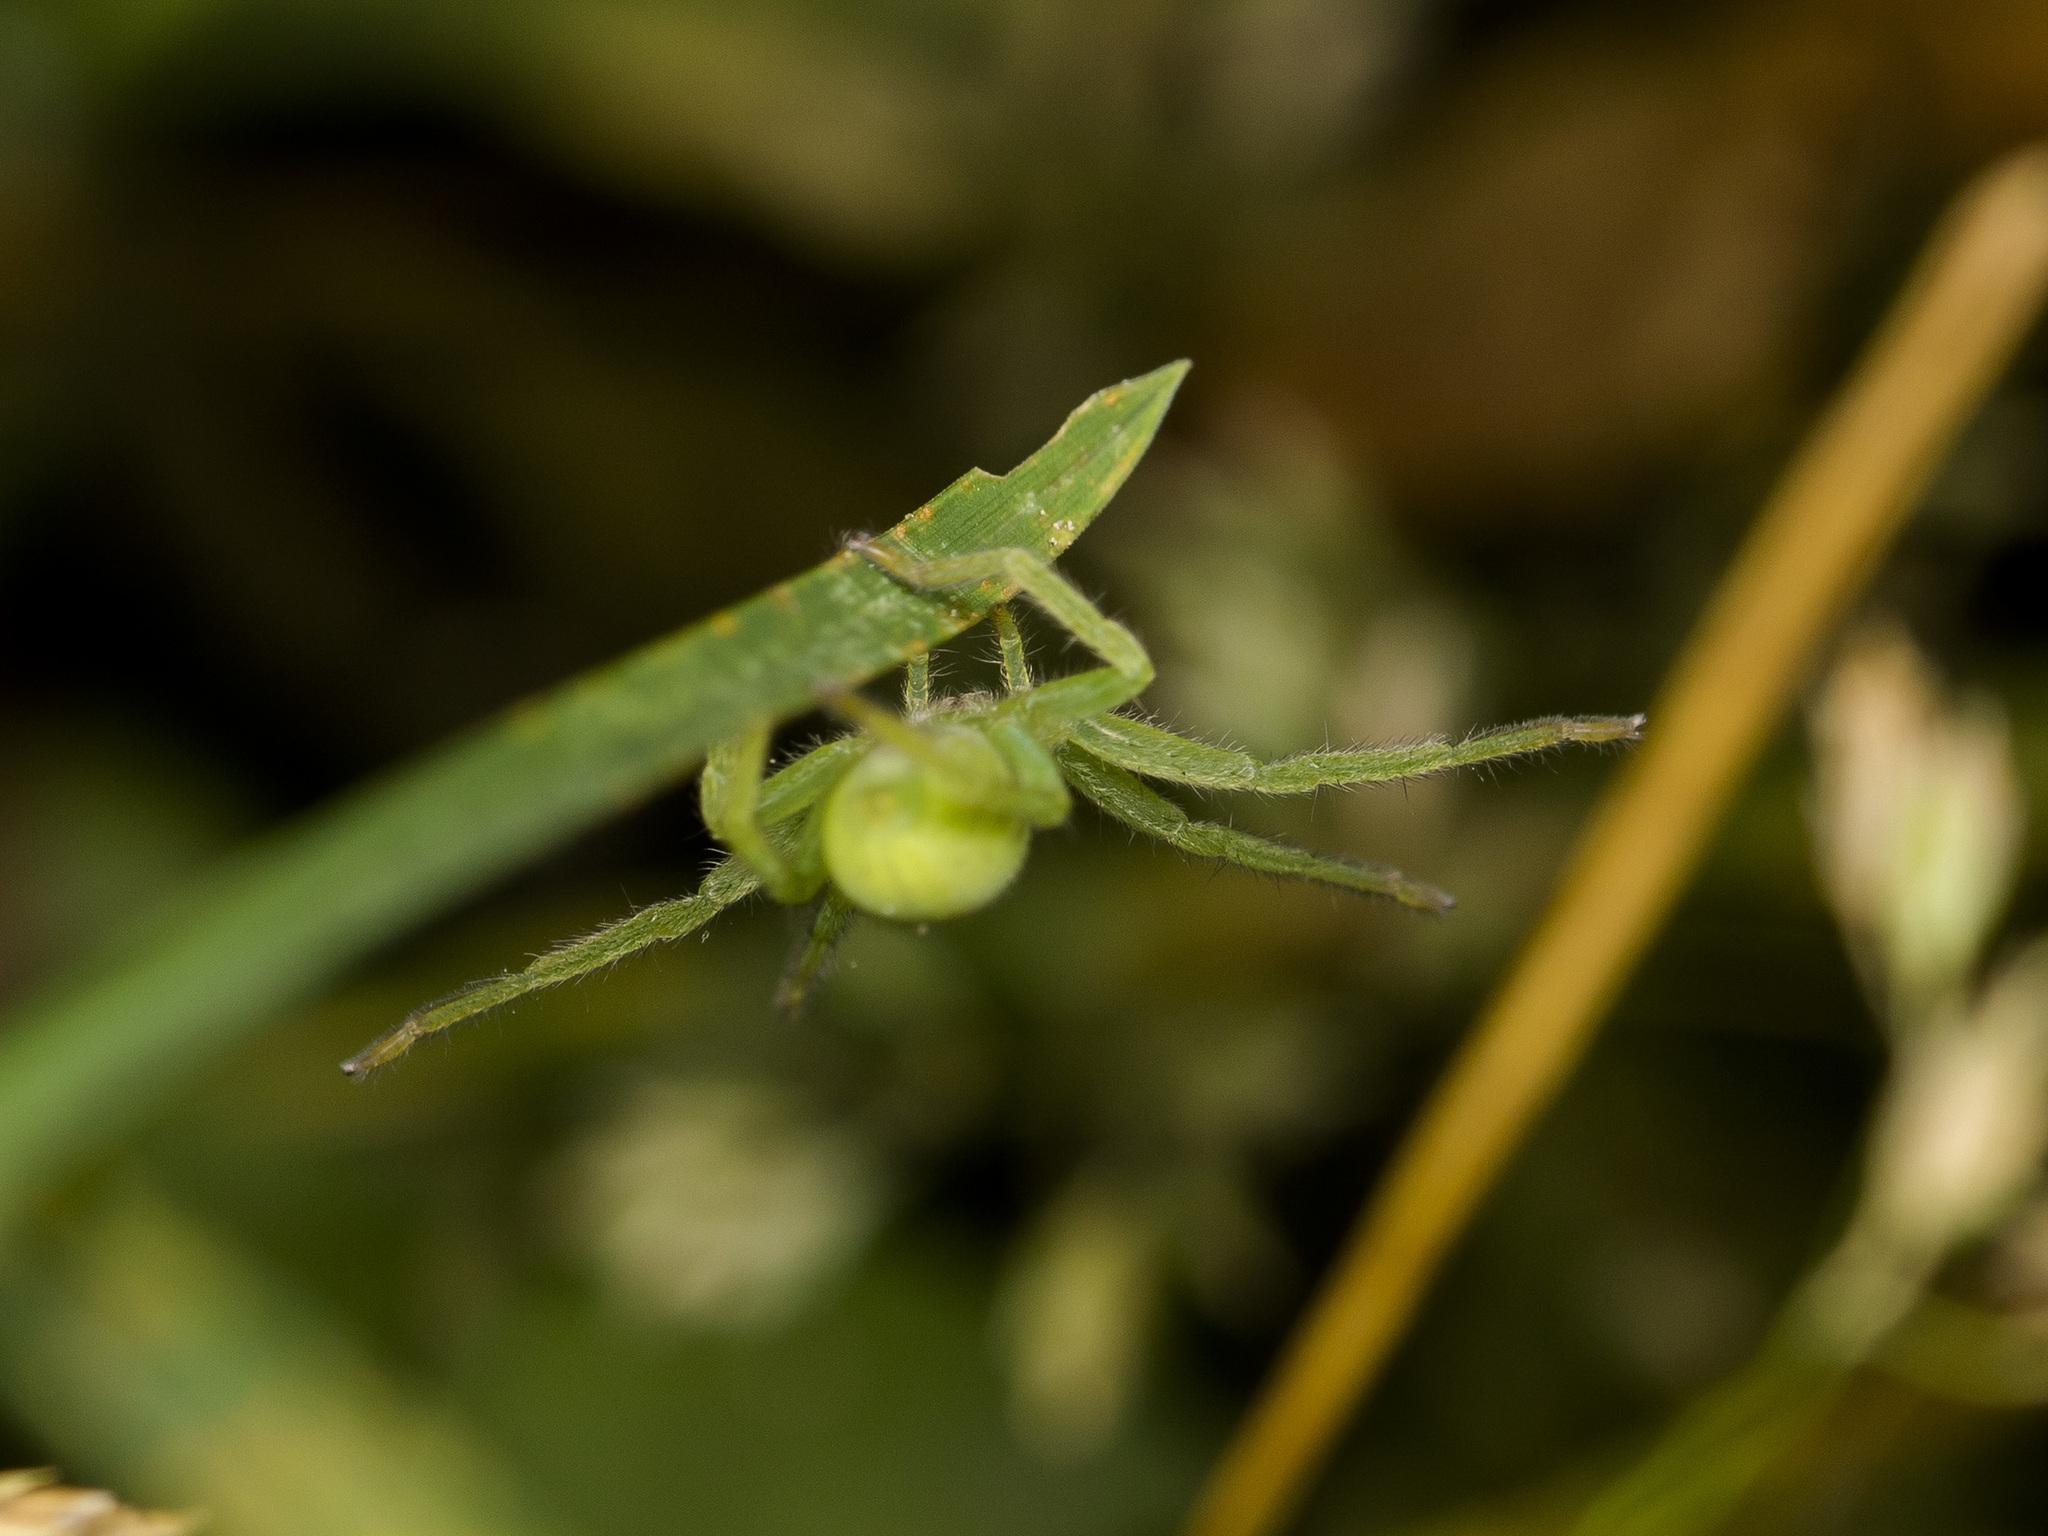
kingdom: Animalia
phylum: Arthropoda
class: Arachnida
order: Araneae
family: Sparassidae
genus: Micrommata
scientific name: Micrommata virescens
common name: Green spider
